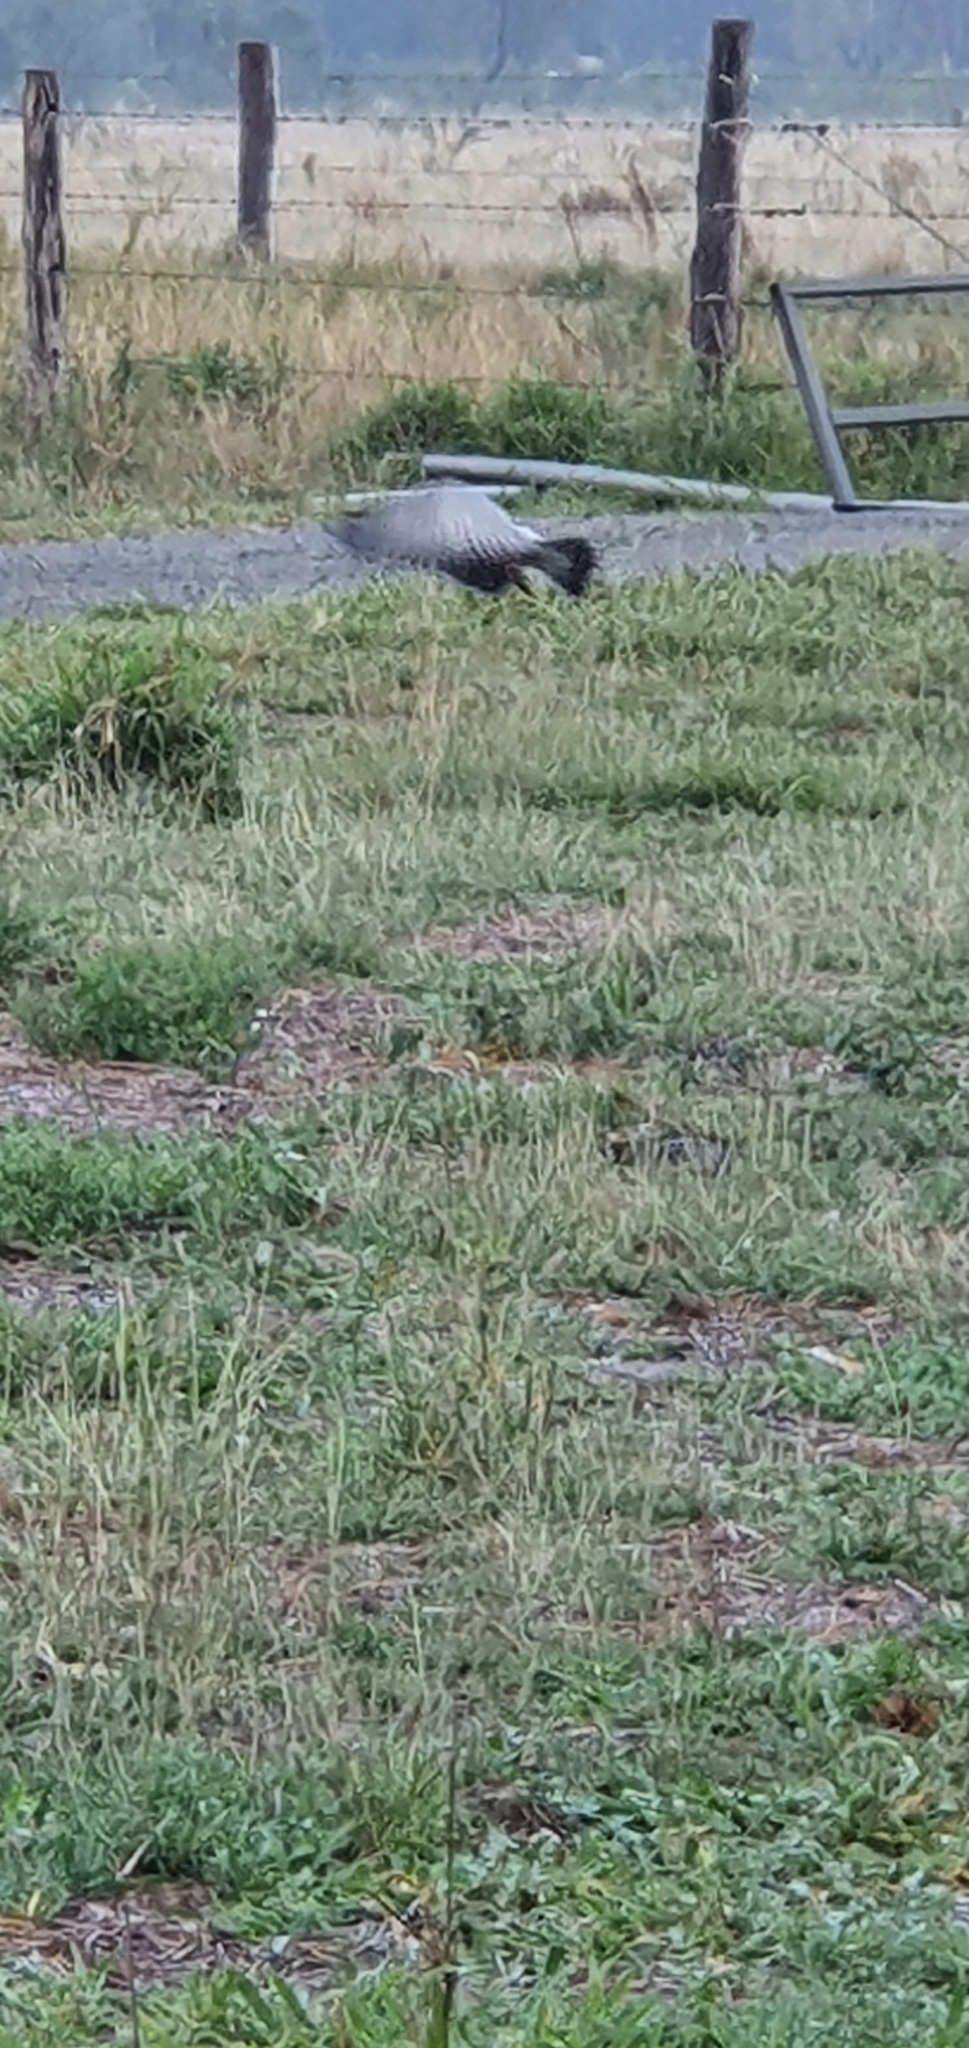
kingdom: Animalia
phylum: Chordata
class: Aves
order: Psittaciformes
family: Psittacidae
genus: Eolophus
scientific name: Eolophus roseicapilla
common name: Galah
